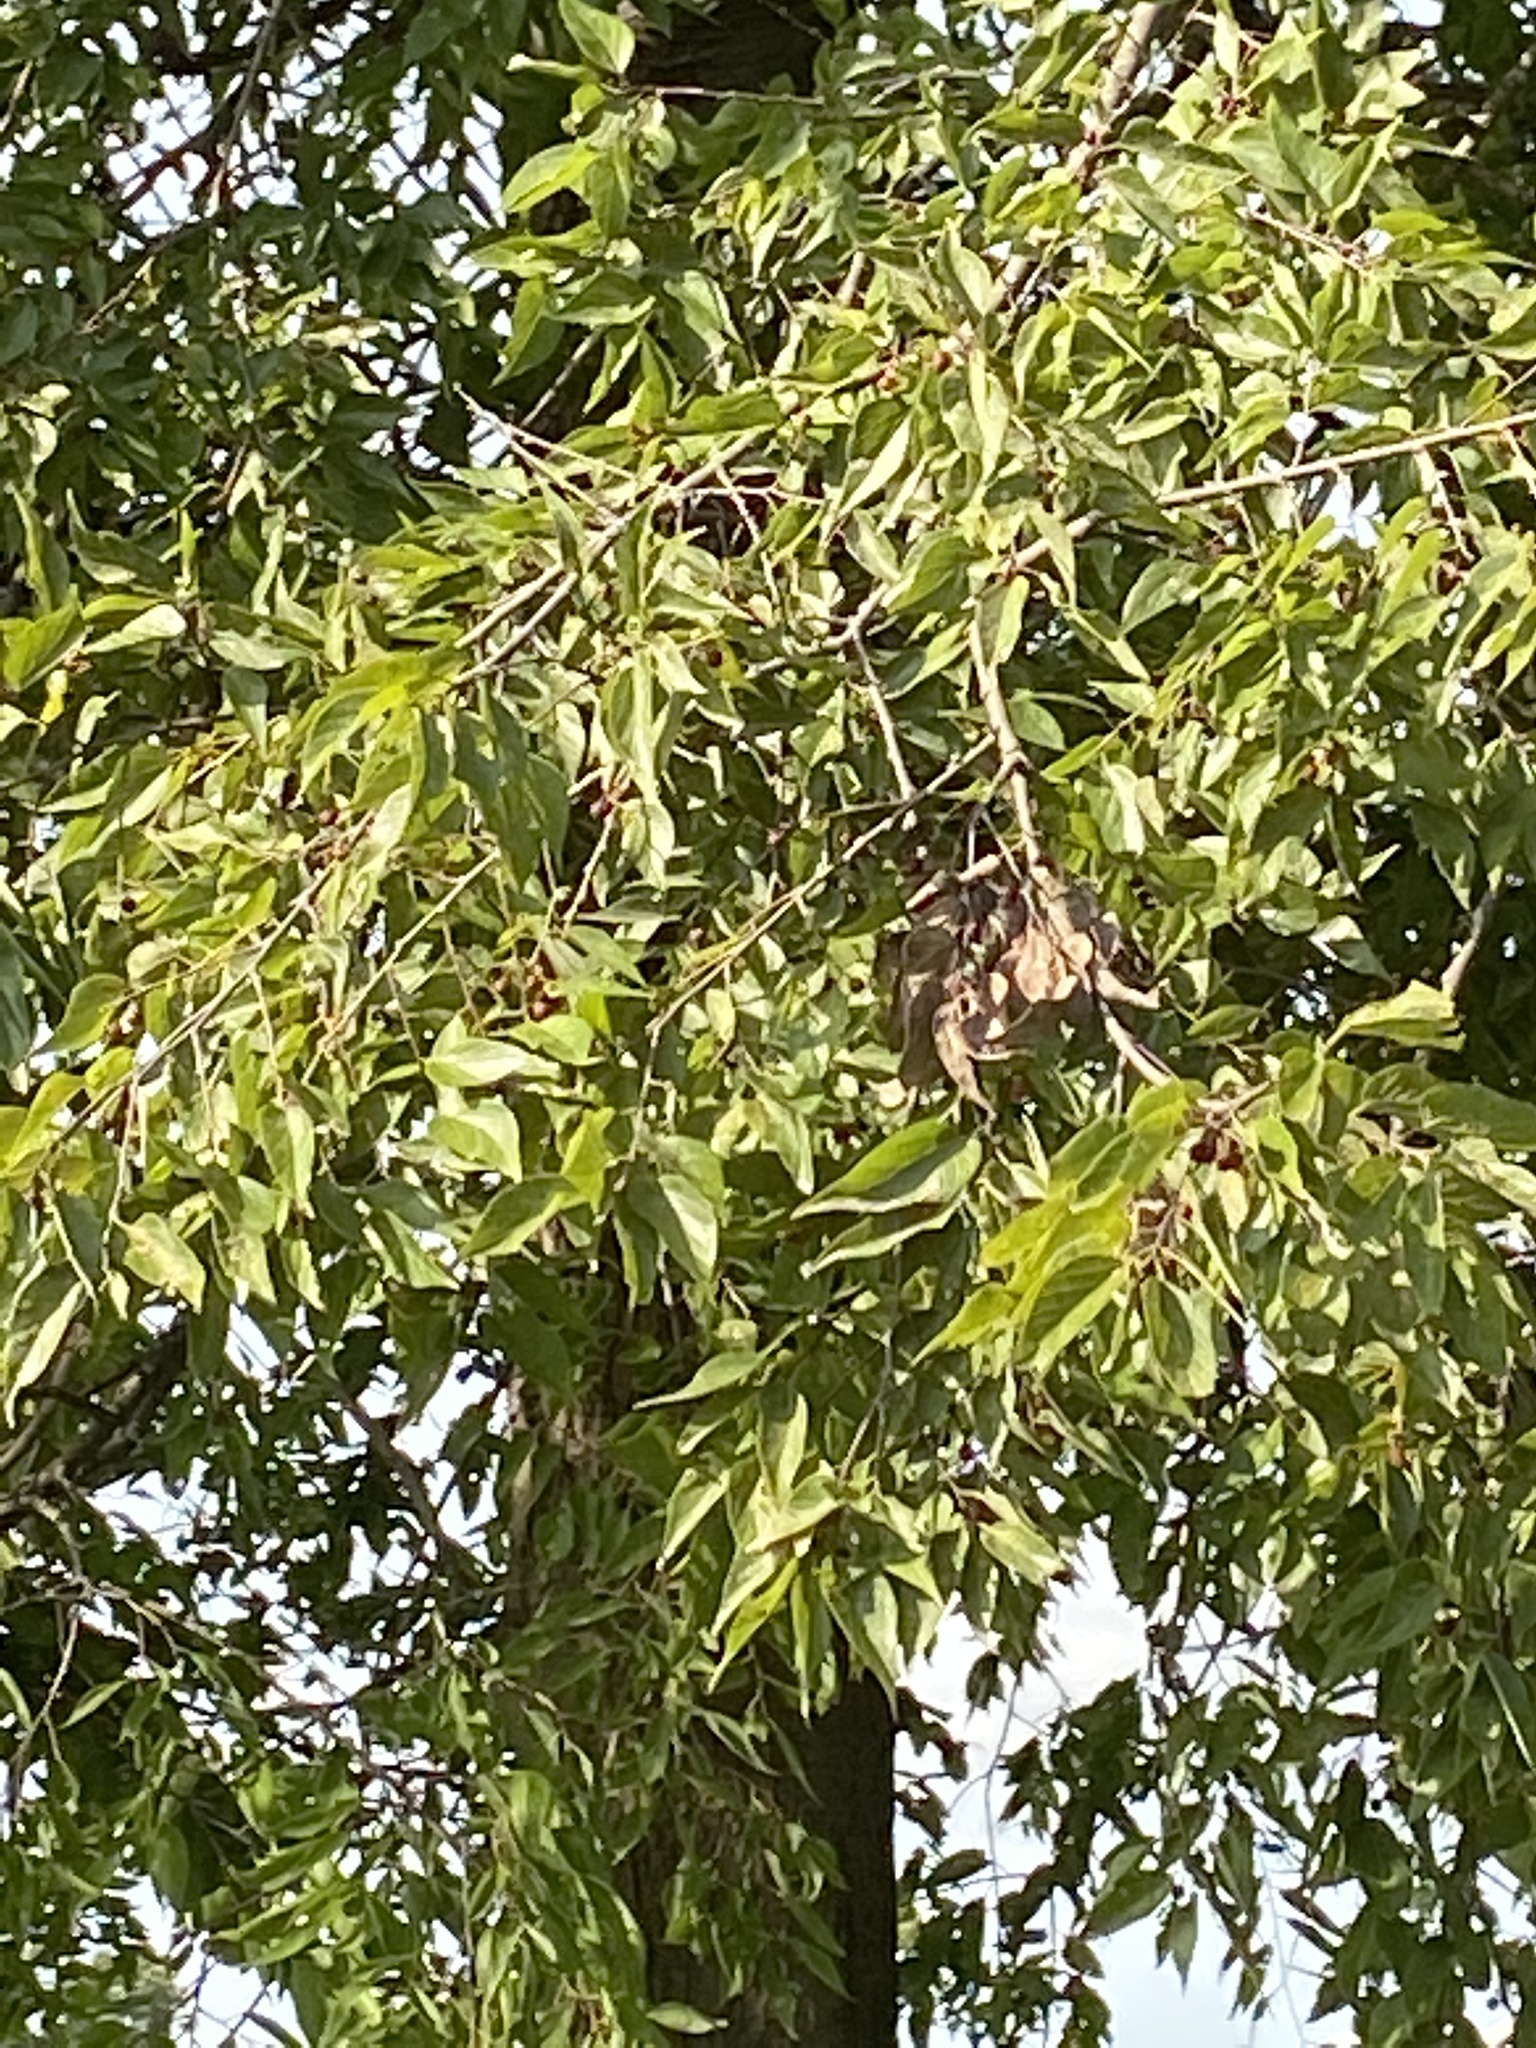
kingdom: Plantae
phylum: Tracheophyta
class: Magnoliopsida
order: Rosales
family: Cannabaceae
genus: Celtis
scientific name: Celtis laevigata
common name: Sugarberry
